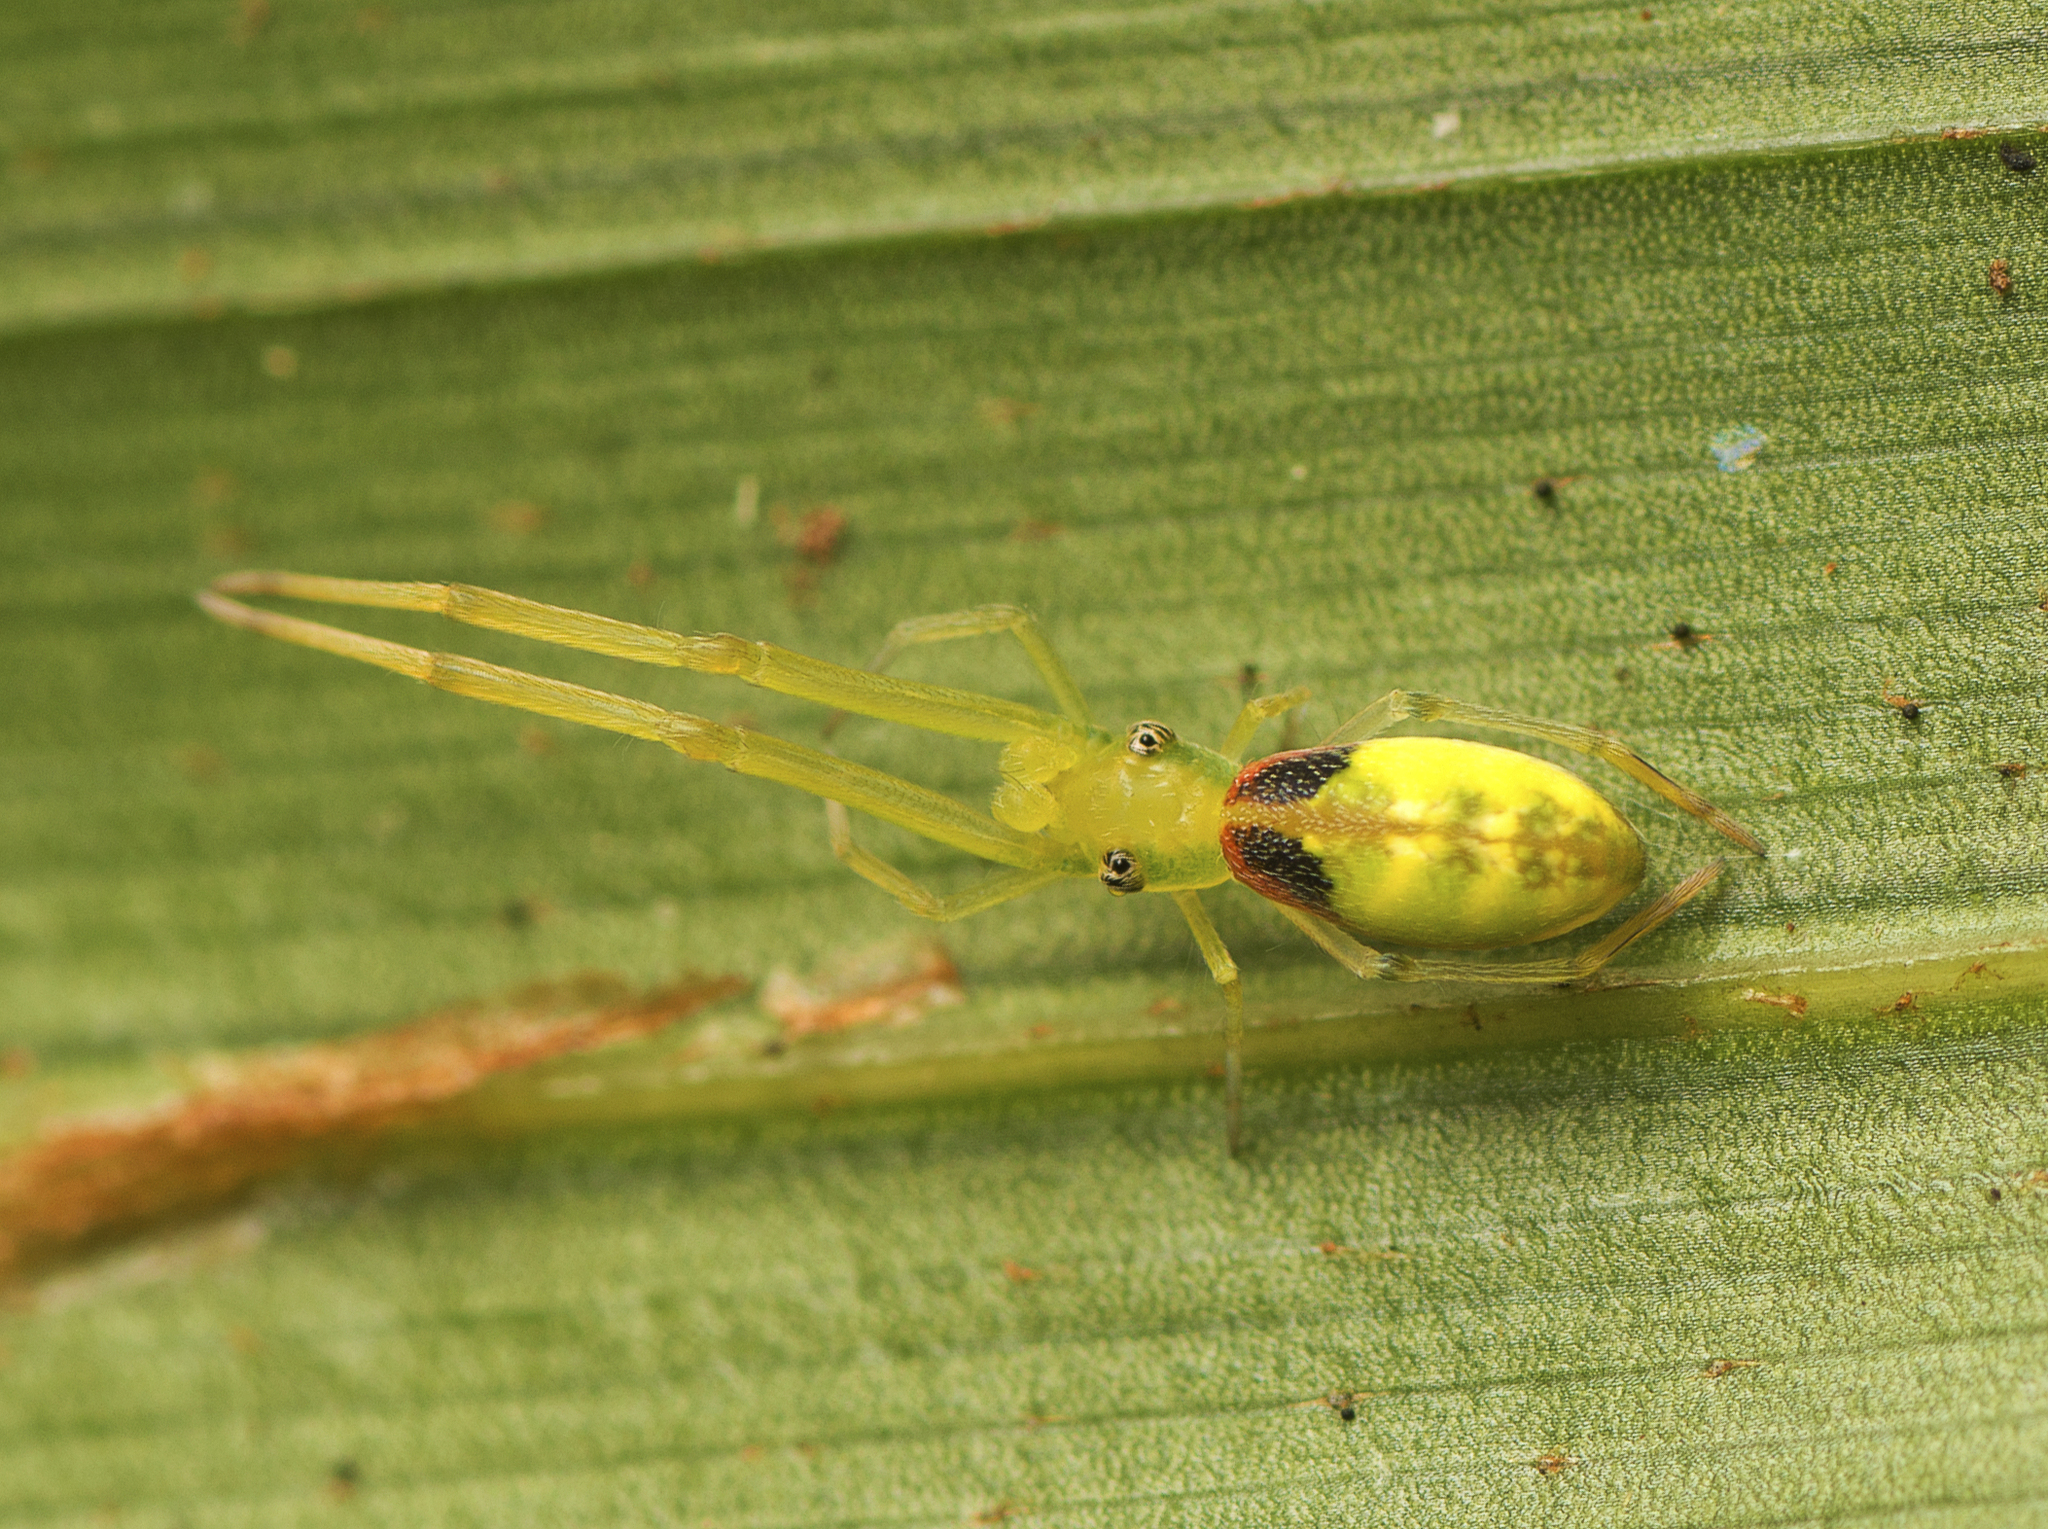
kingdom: Animalia
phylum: Arthropoda
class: Arachnida
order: Araneae
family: Uloboridae
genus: Miagrammopes
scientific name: Miagrammopes flavus
